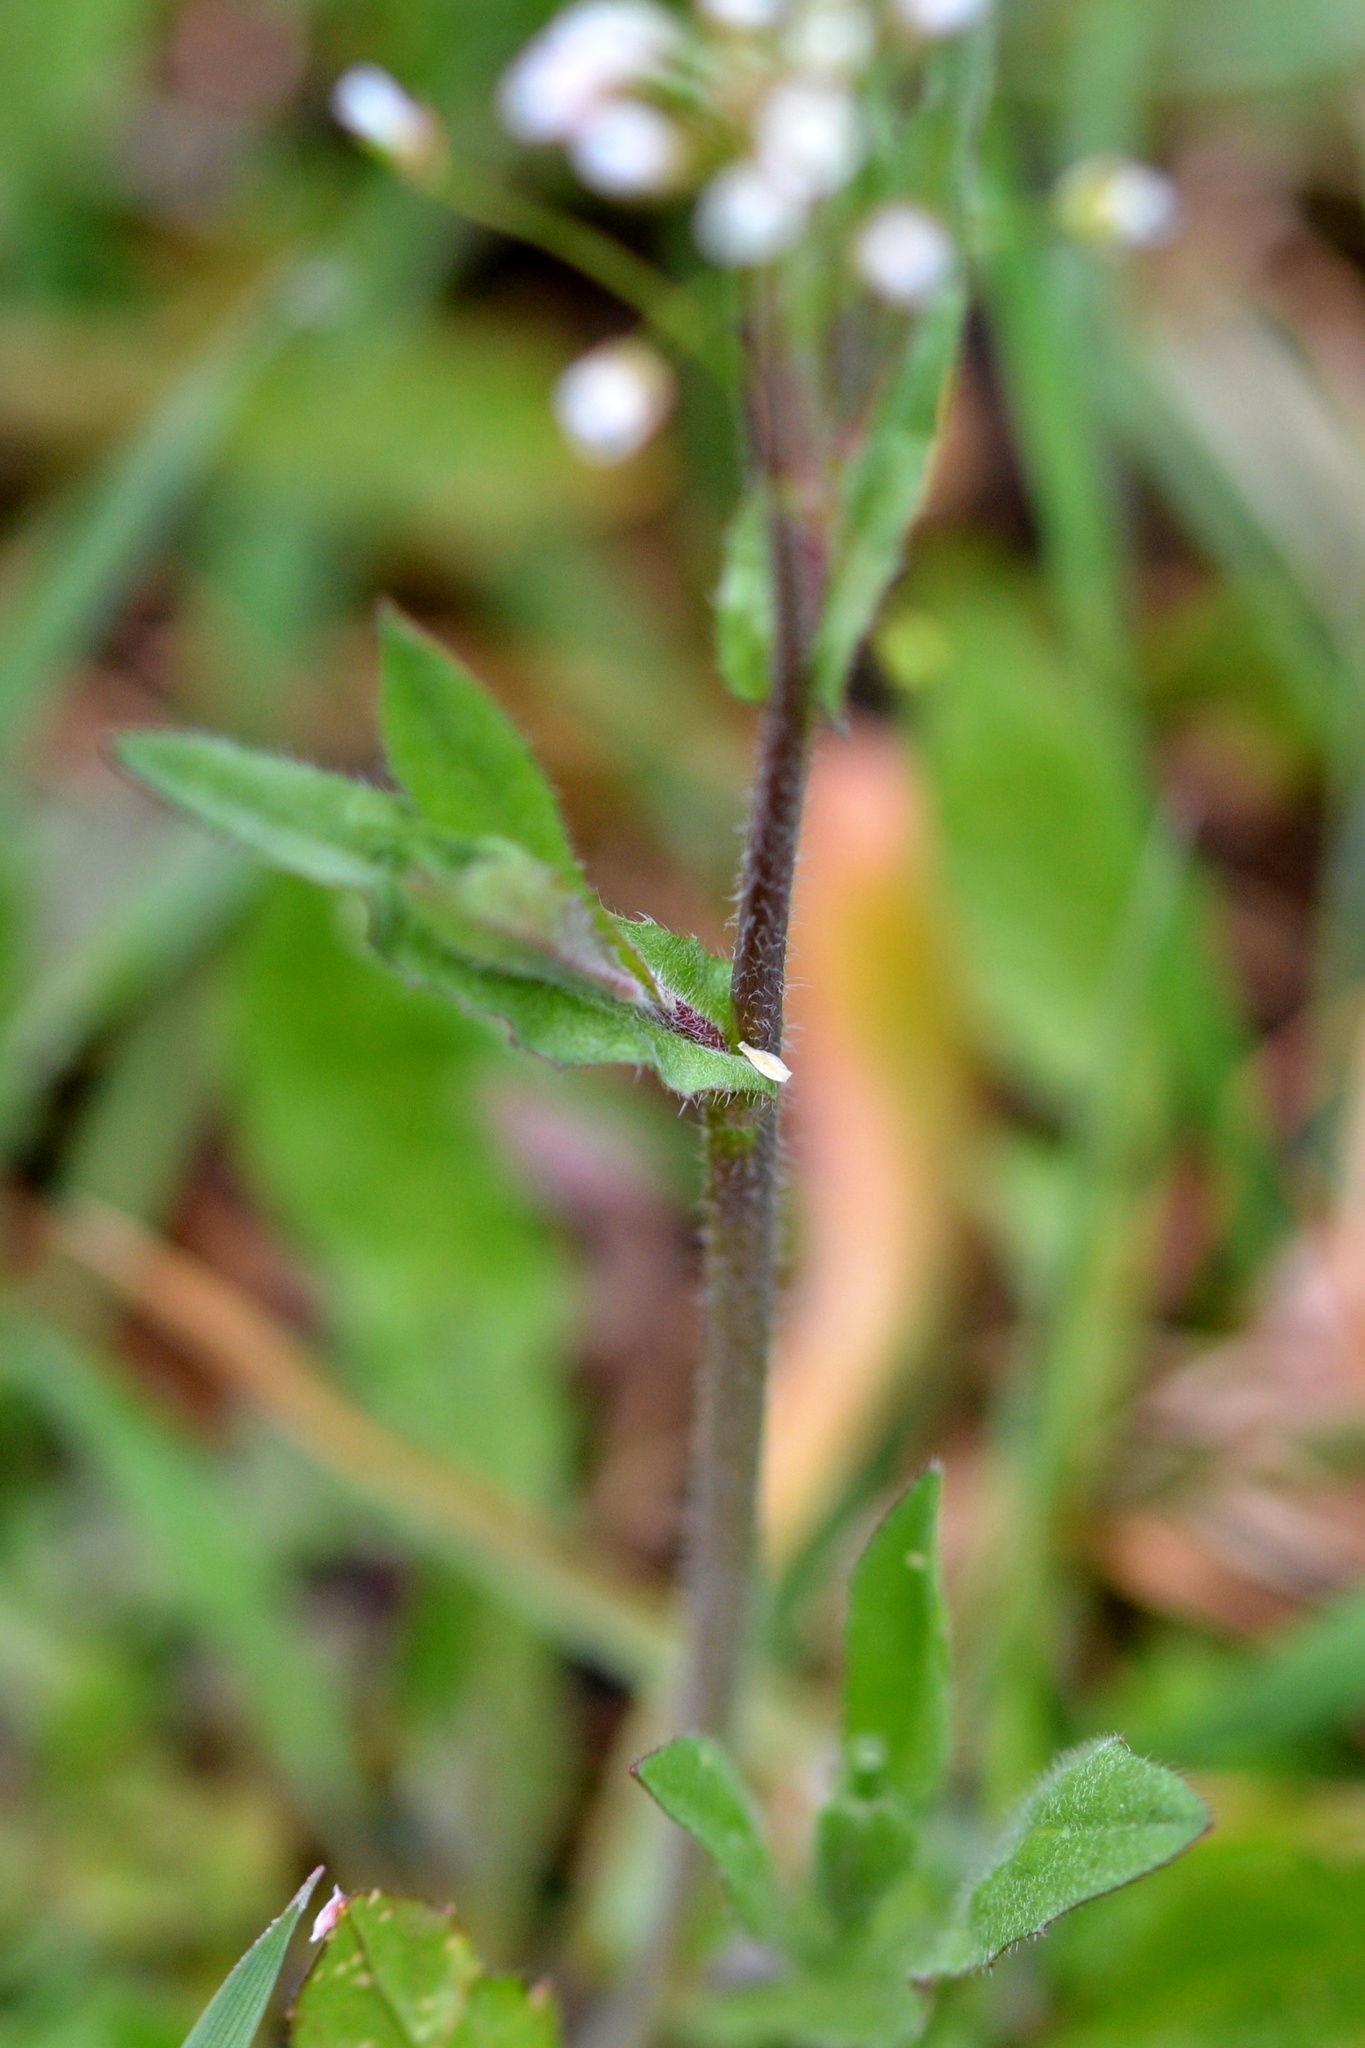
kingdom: Plantae
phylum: Tracheophyta
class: Magnoliopsida
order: Brassicales
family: Brassicaceae
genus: Capsella
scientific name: Capsella bursa-pastoris
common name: Shepherd's purse
